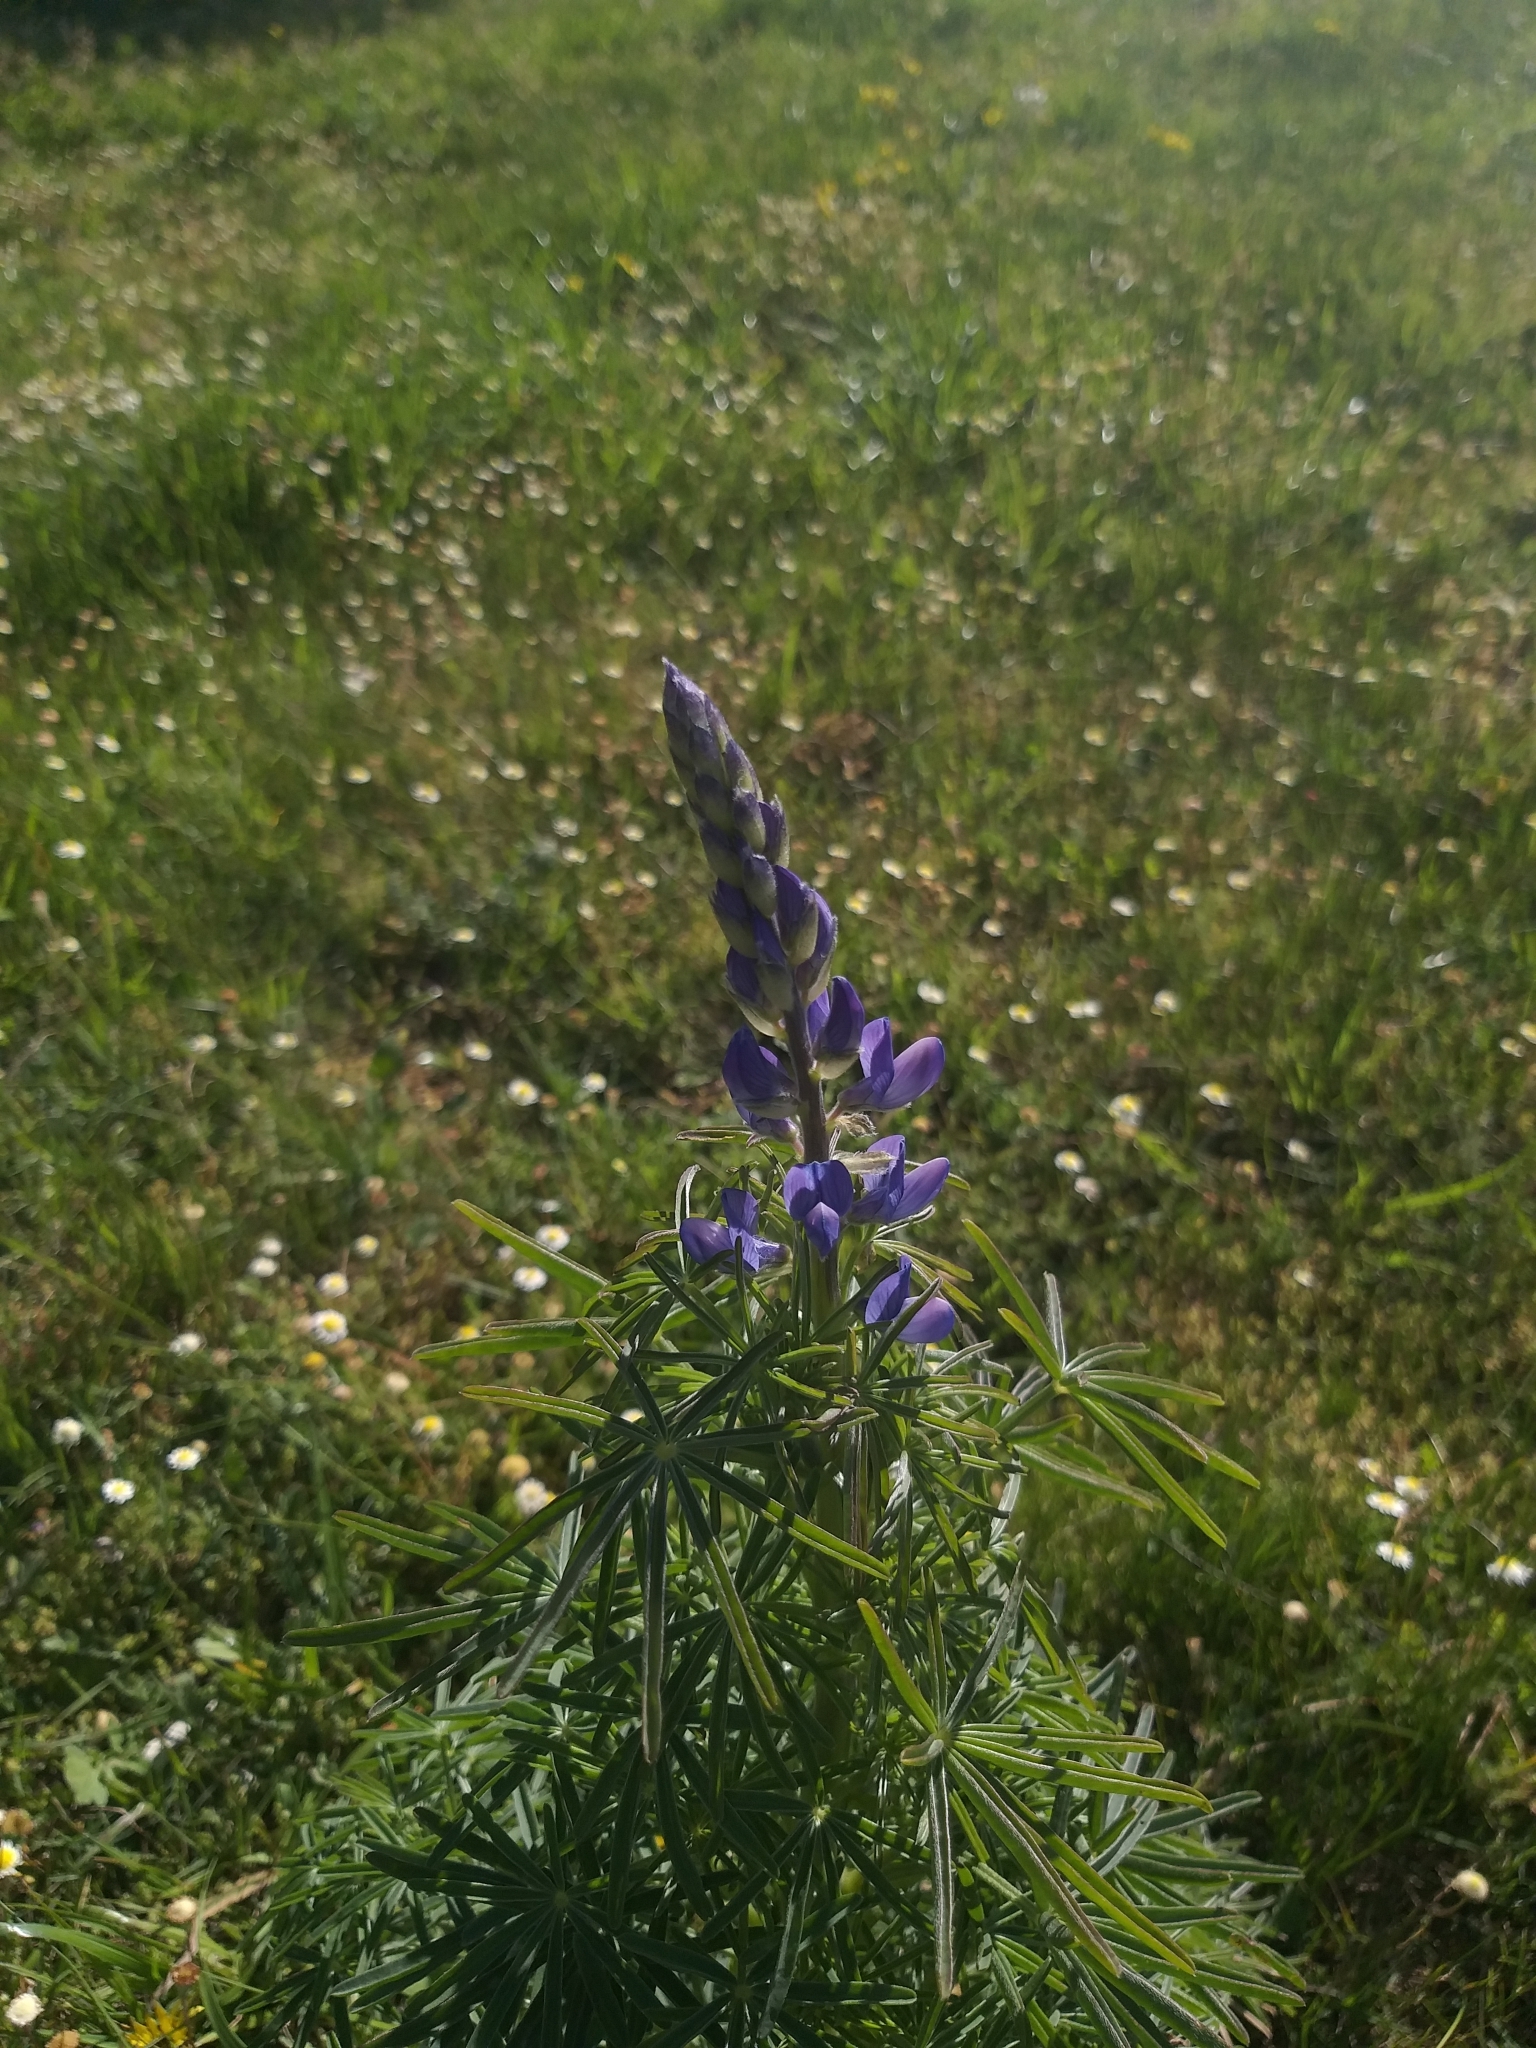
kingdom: Plantae
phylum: Tracheophyta
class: Magnoliopsida
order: Fabales
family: Fabaceae
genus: Lupinus
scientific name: Lupinus angustifolius
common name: Narrow-leaved lupin
